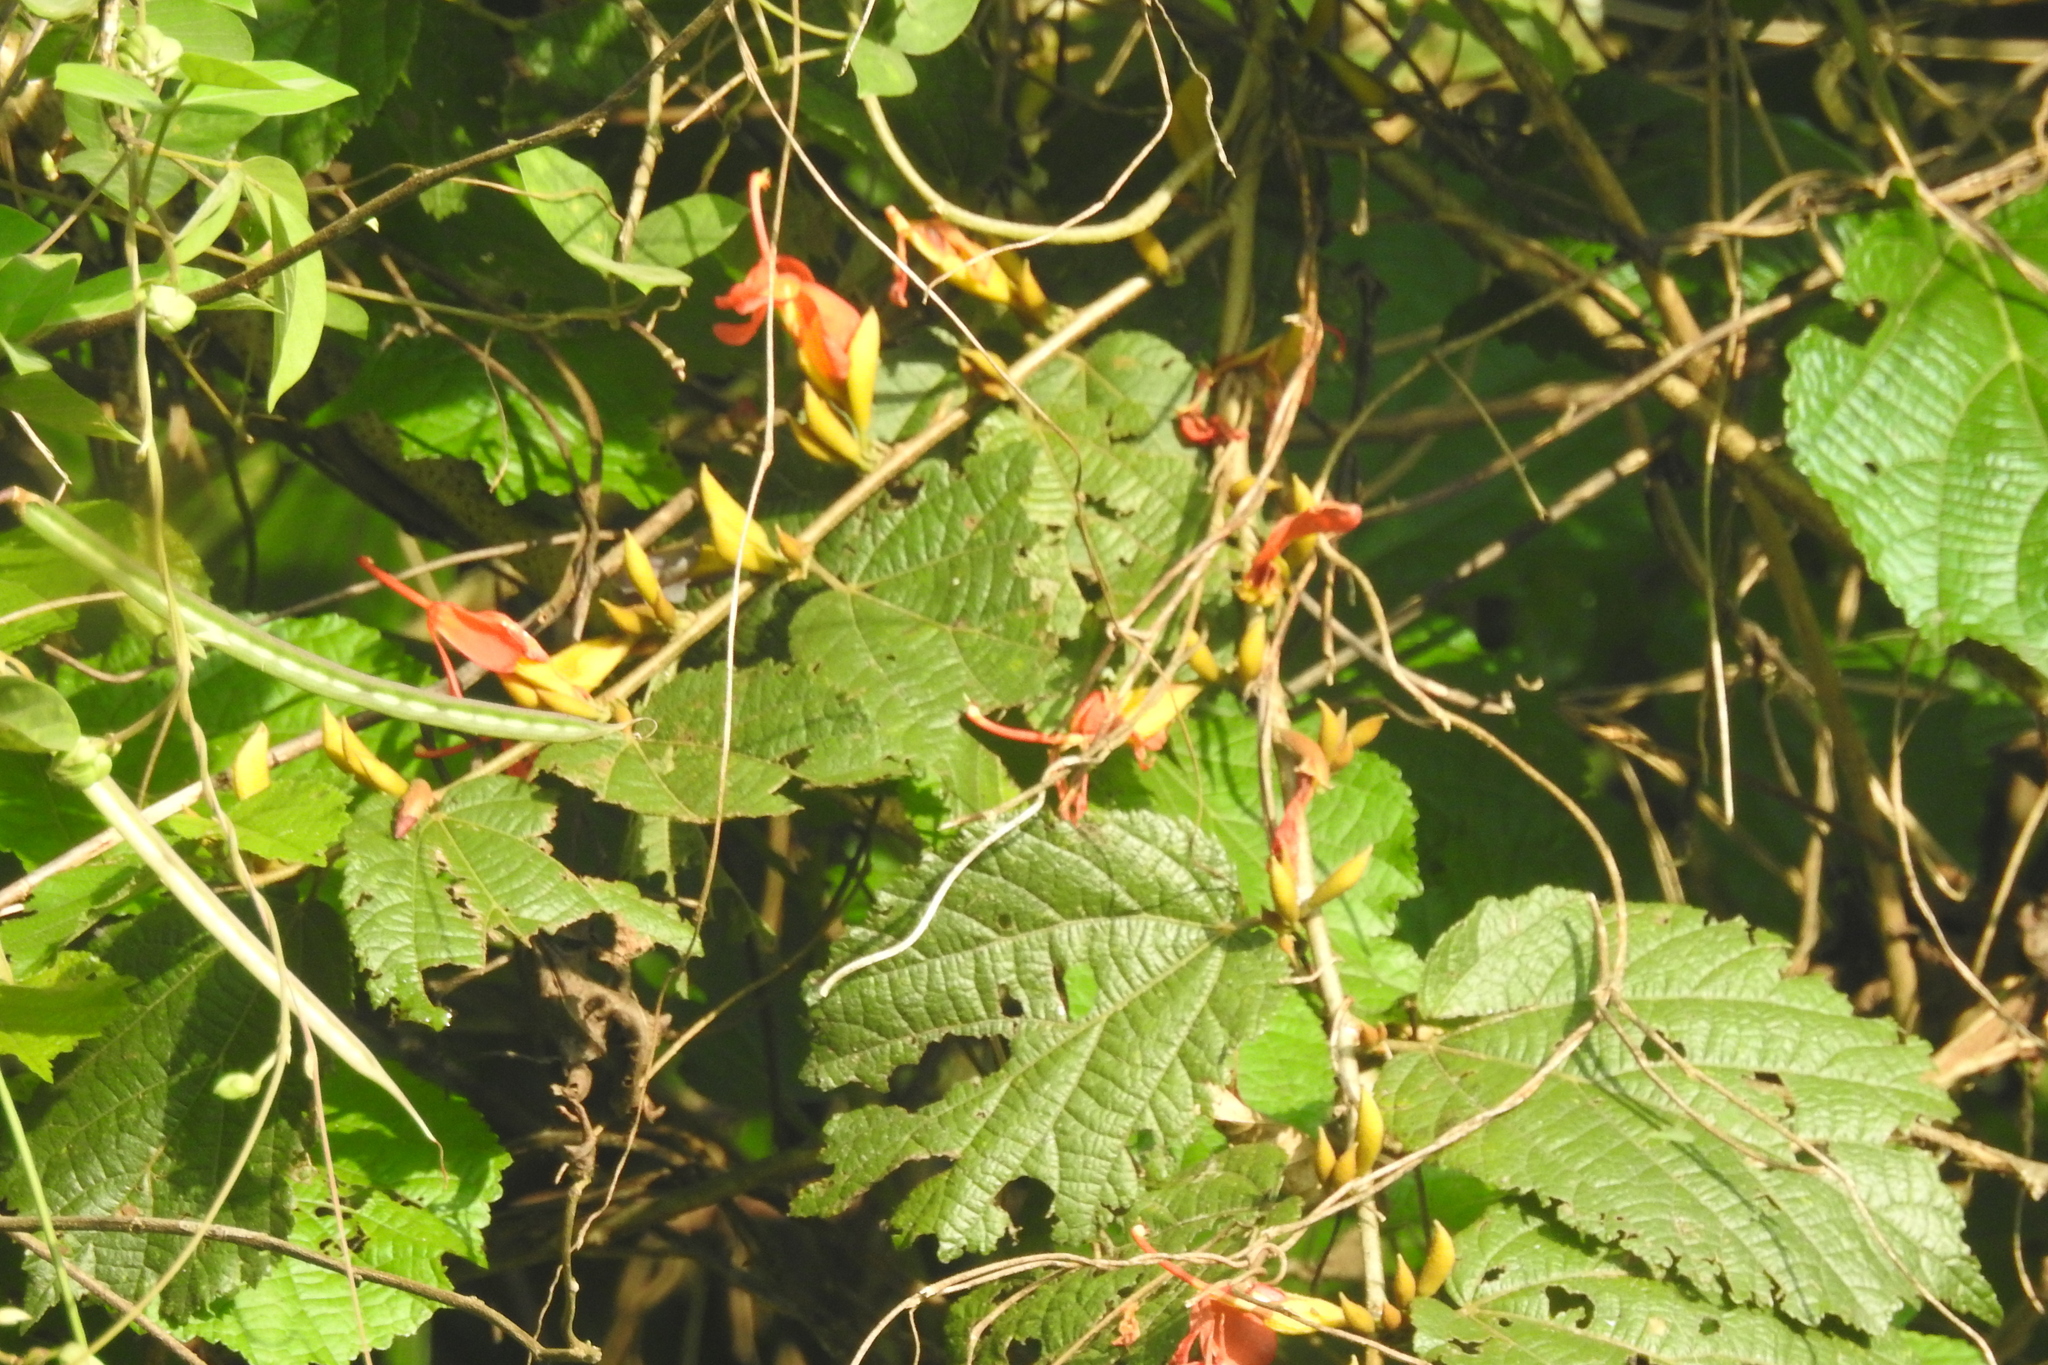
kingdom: Plantae
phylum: Tracheophyta
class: Magnoliopsida
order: Malvales
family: Malvaceae
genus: Helicteres
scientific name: Helicteres isora
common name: East indian screwtree
